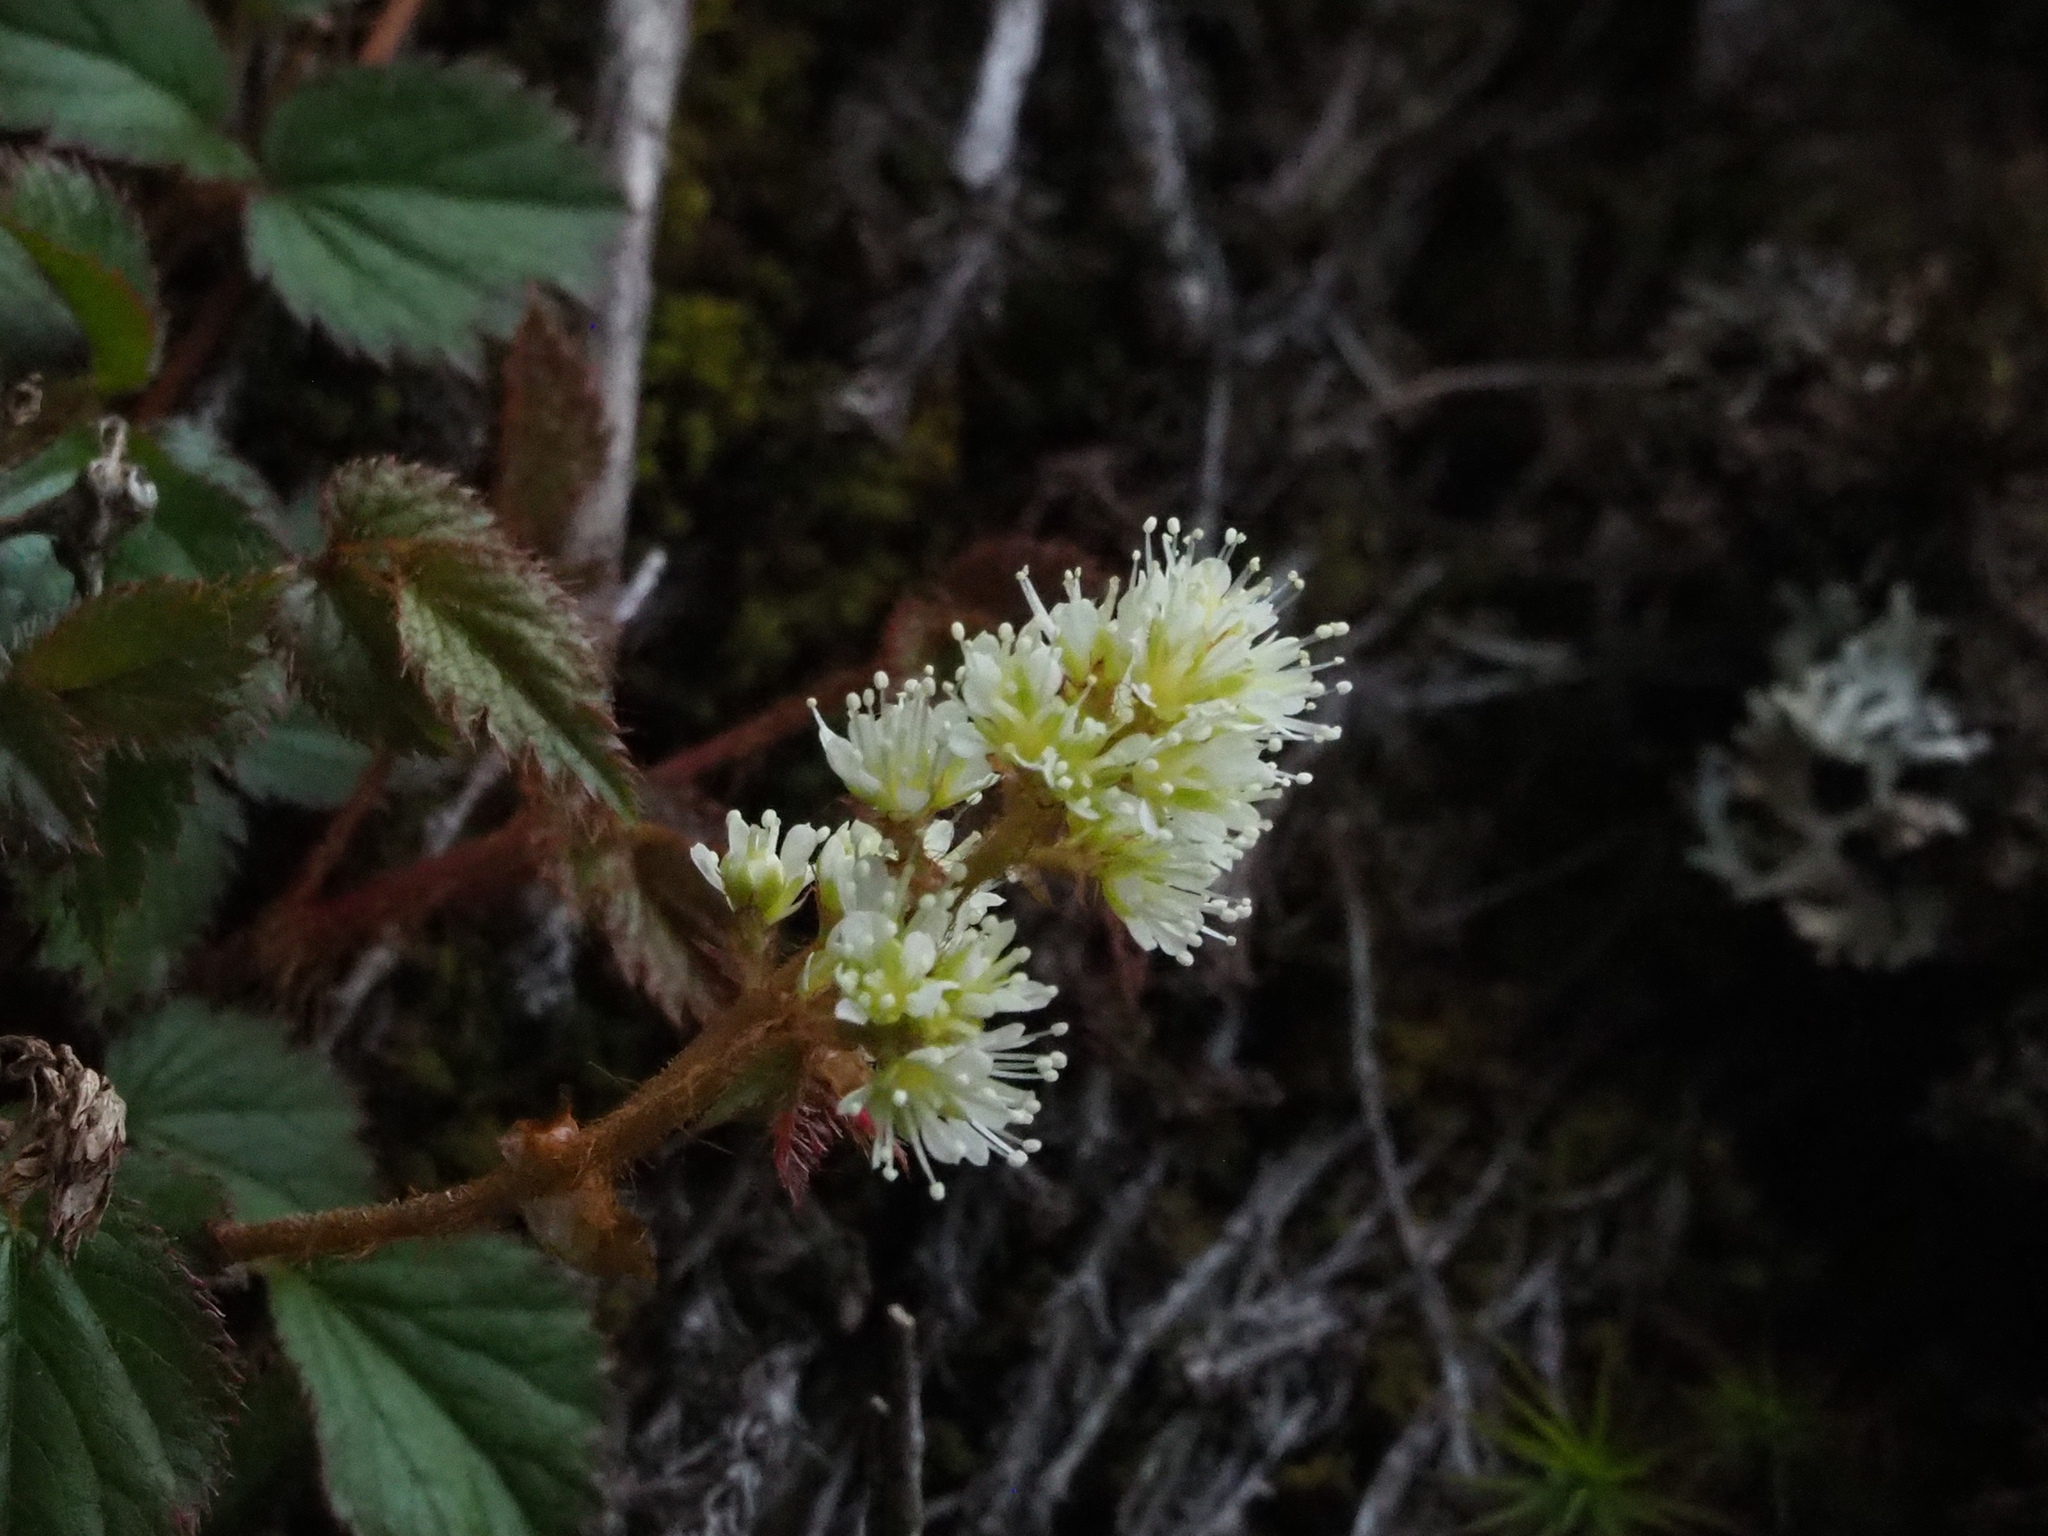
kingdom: Plantae
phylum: Tracheophyta
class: Magnoliopsida
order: Saxifragales
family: Saxifragaceae
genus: Astilbe
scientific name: Astilbe macroflora
